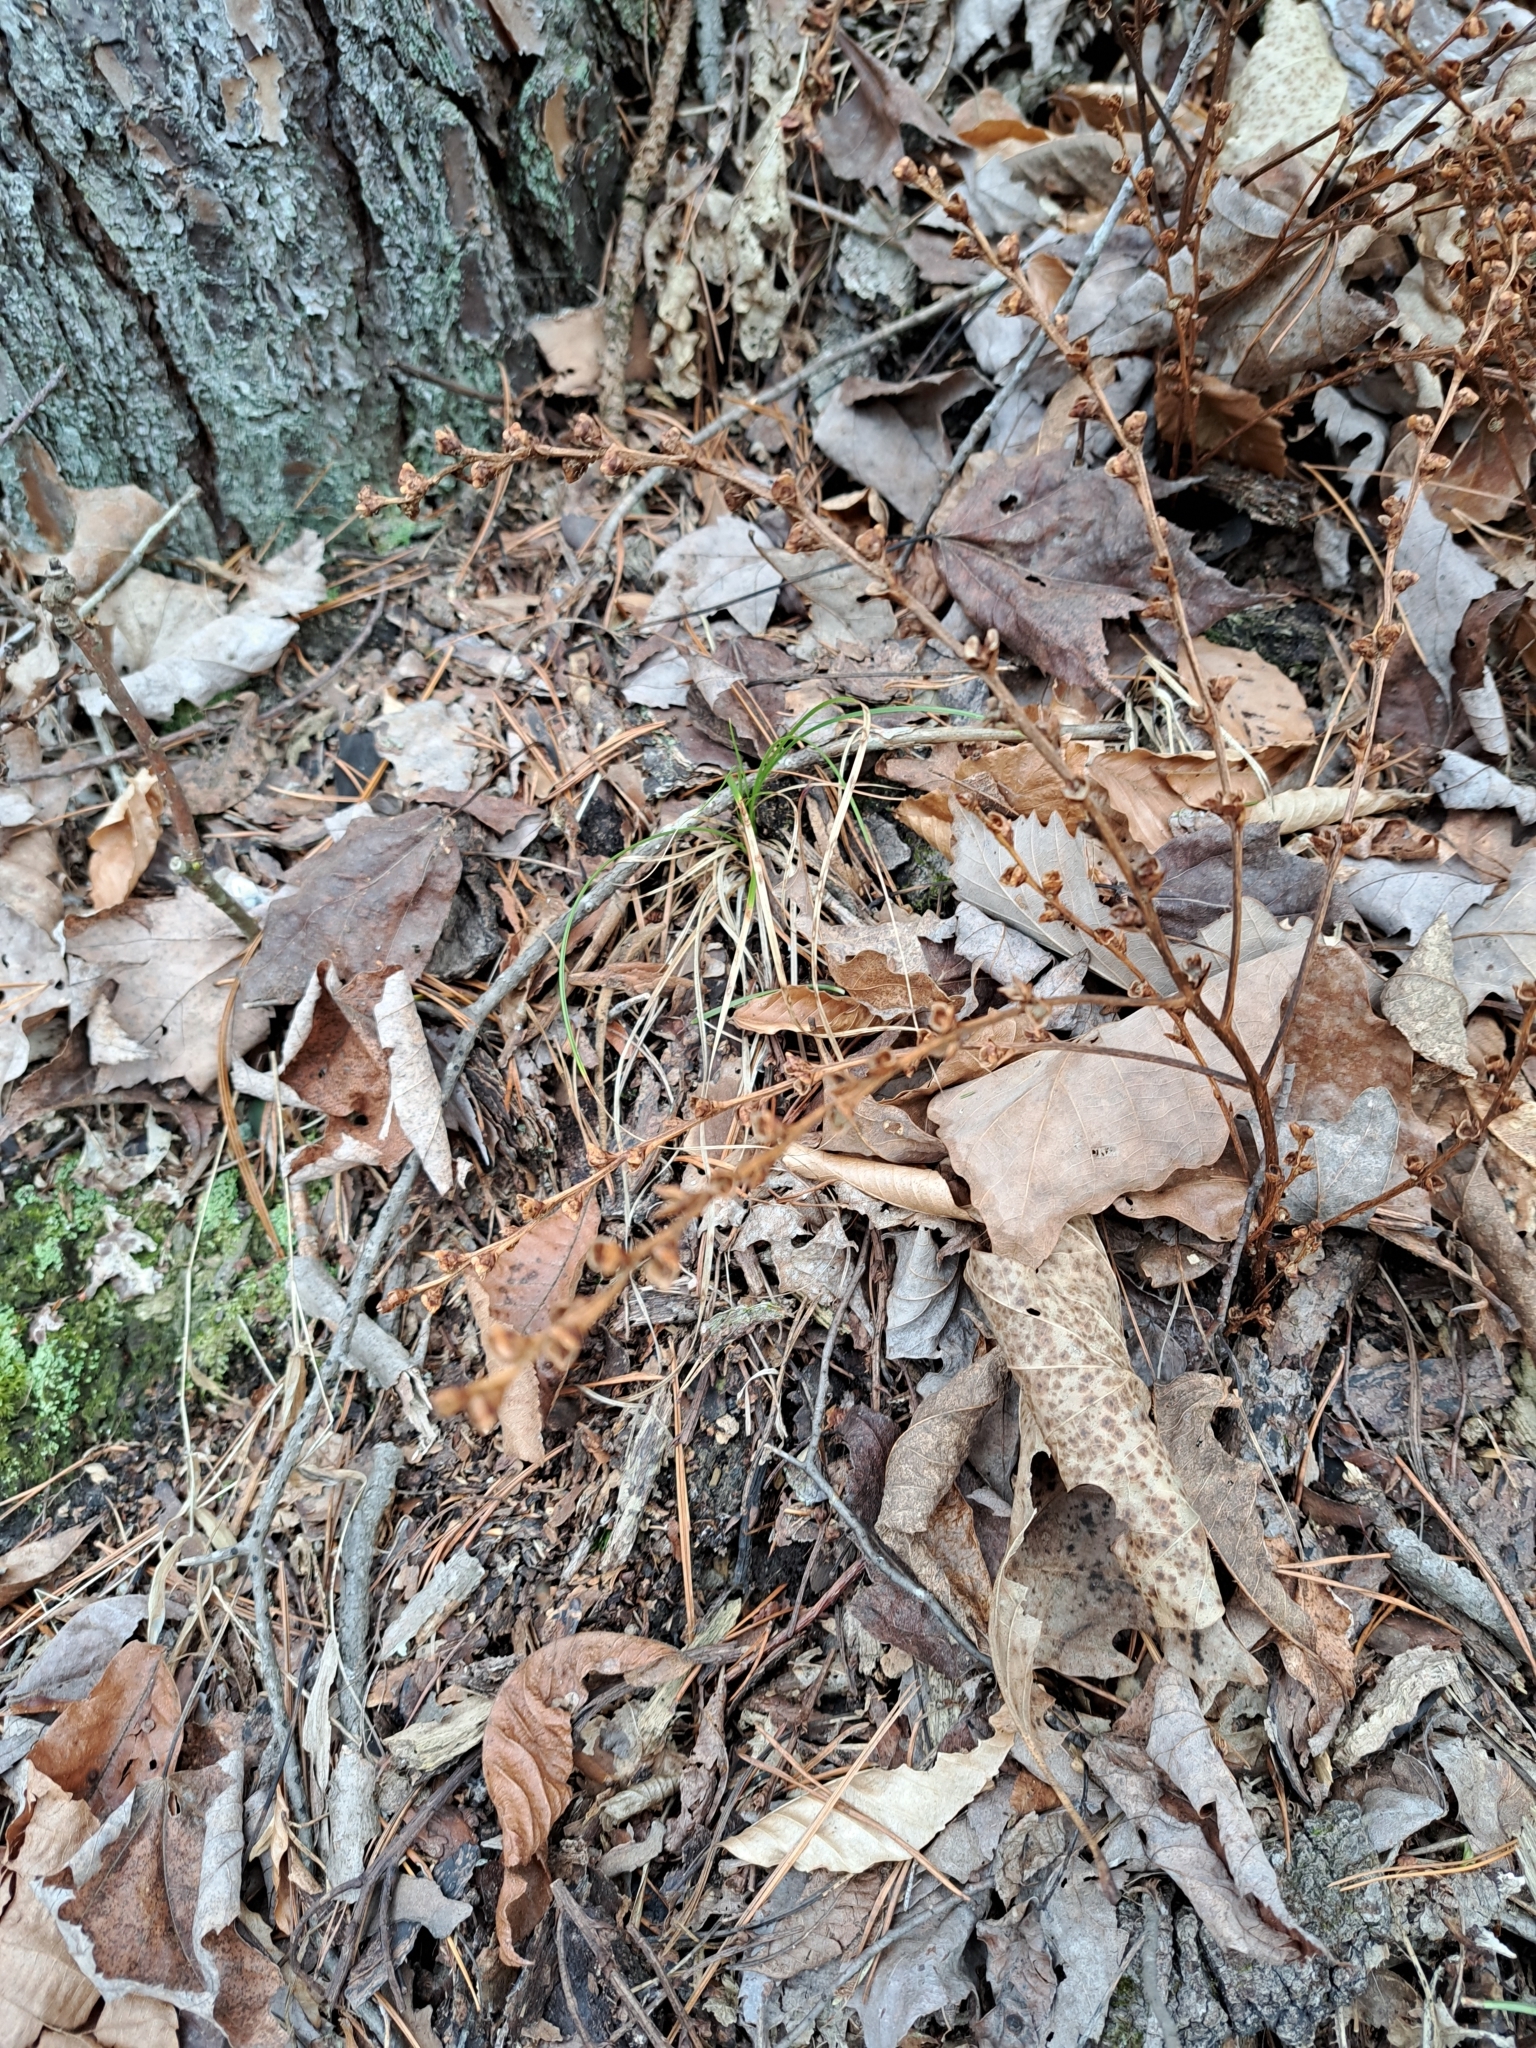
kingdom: Plantae
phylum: Tracheophyta
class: Magnoliopsida
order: Lamiales
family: Orobanchaceae
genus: Epifagus
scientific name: Epifagus virginiana
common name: Beechdrops
